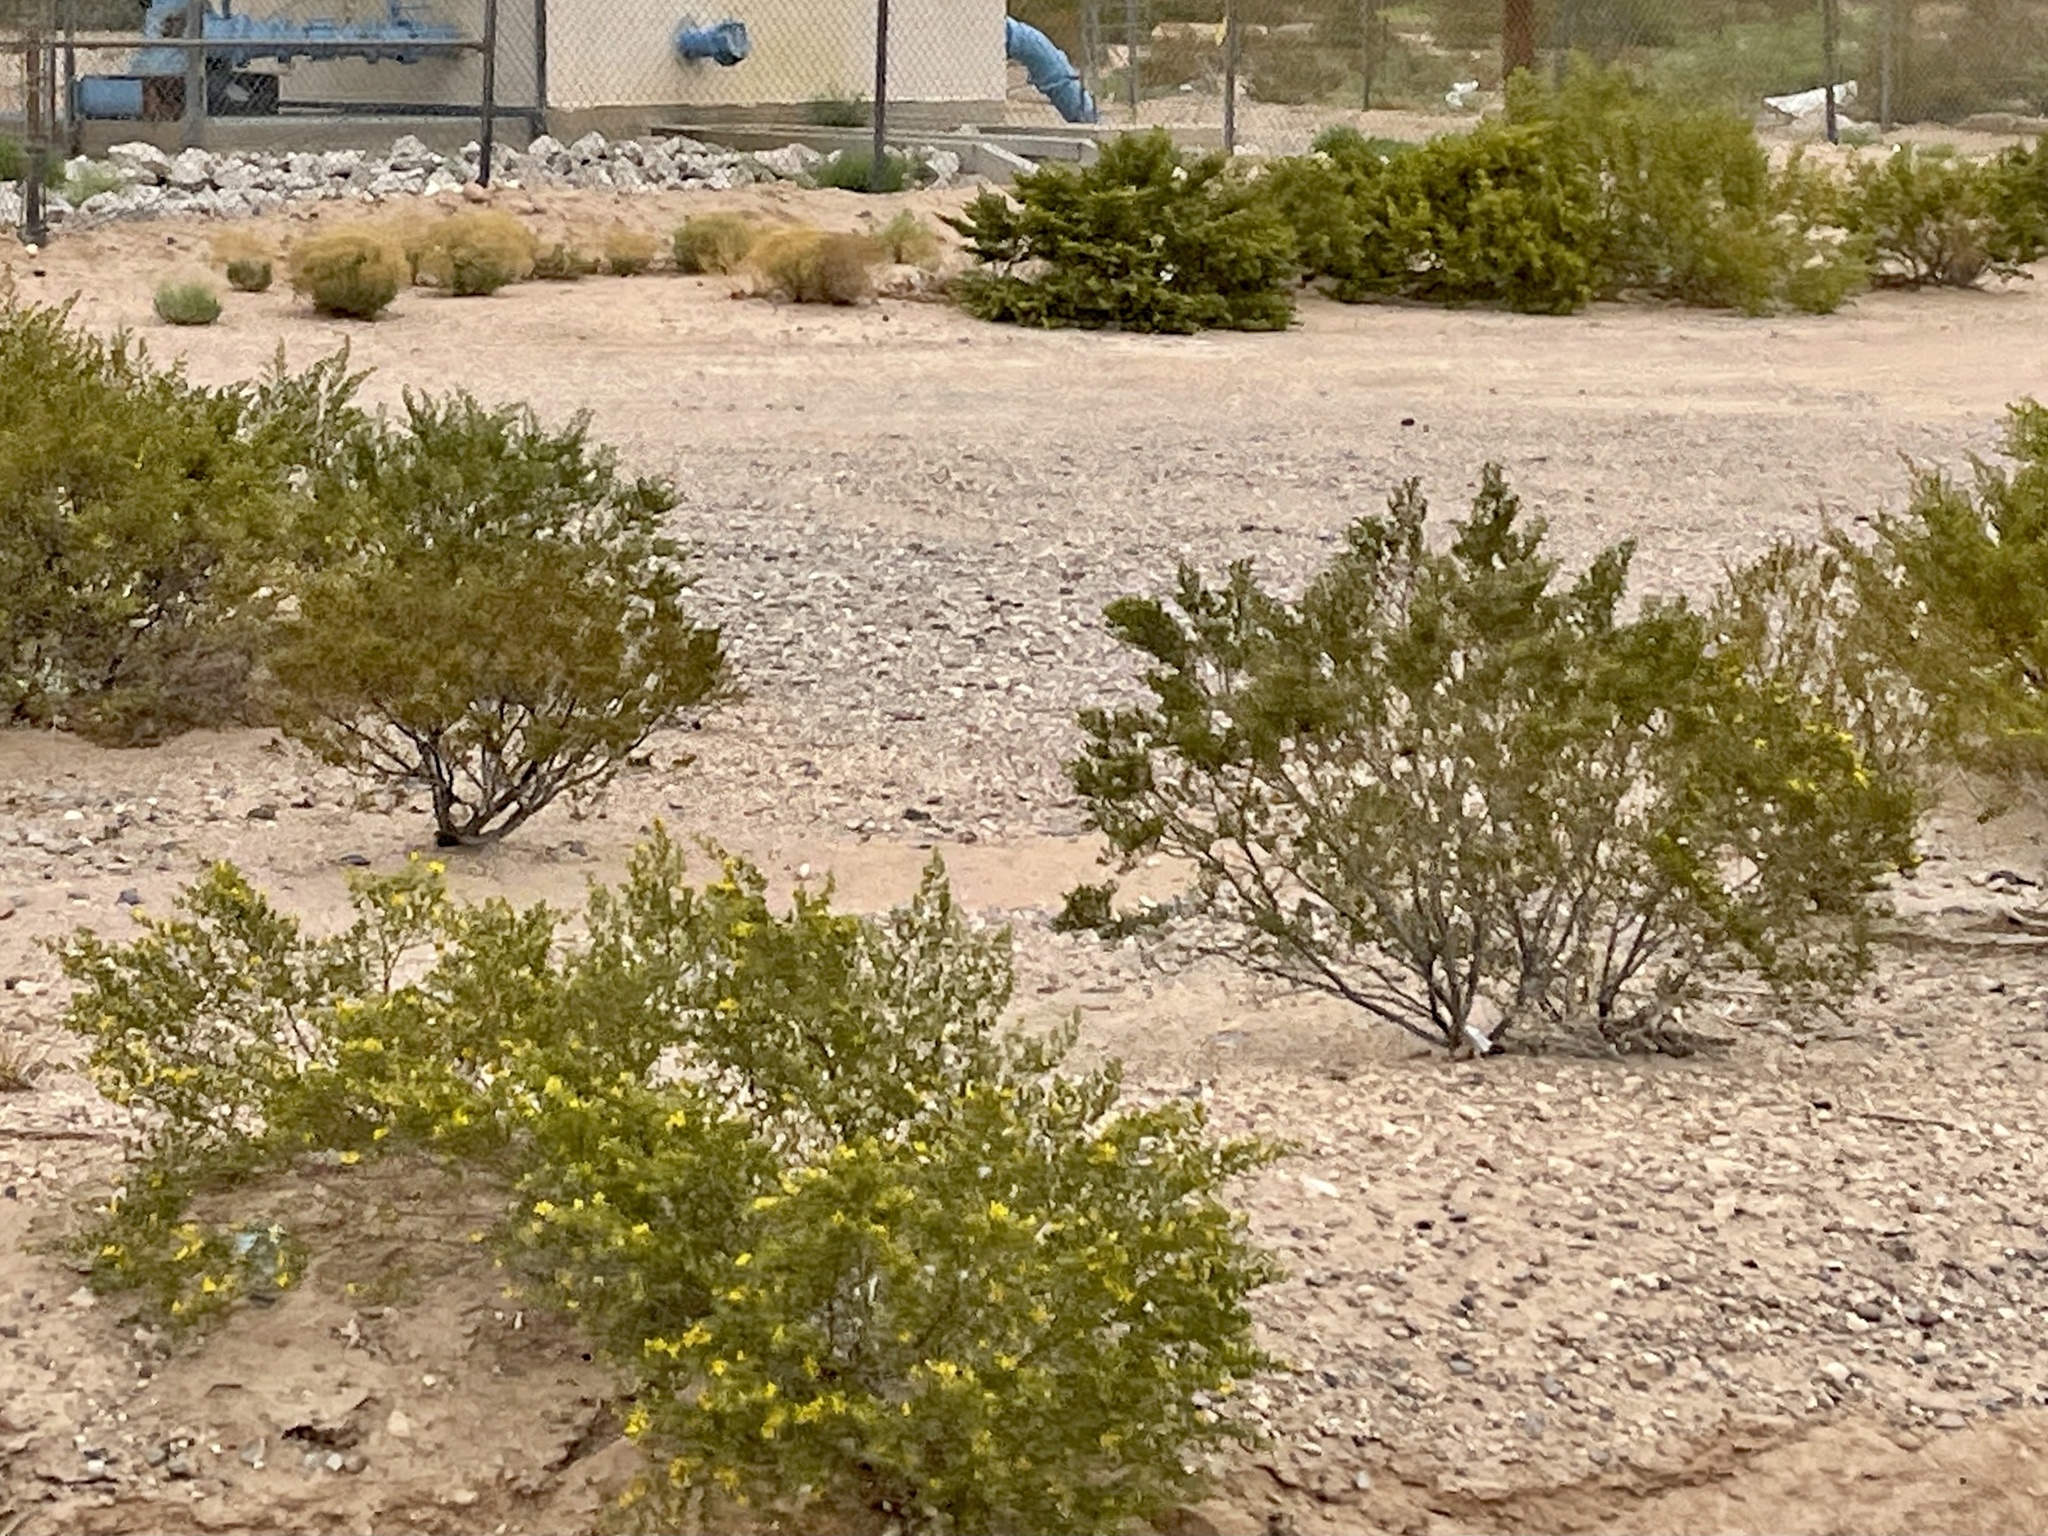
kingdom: Plantae
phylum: Tracheophyta
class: Magnoliopsida
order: Zygophyllales
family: Zygophyllaceae
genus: Larrea
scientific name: Larrea tridentata
